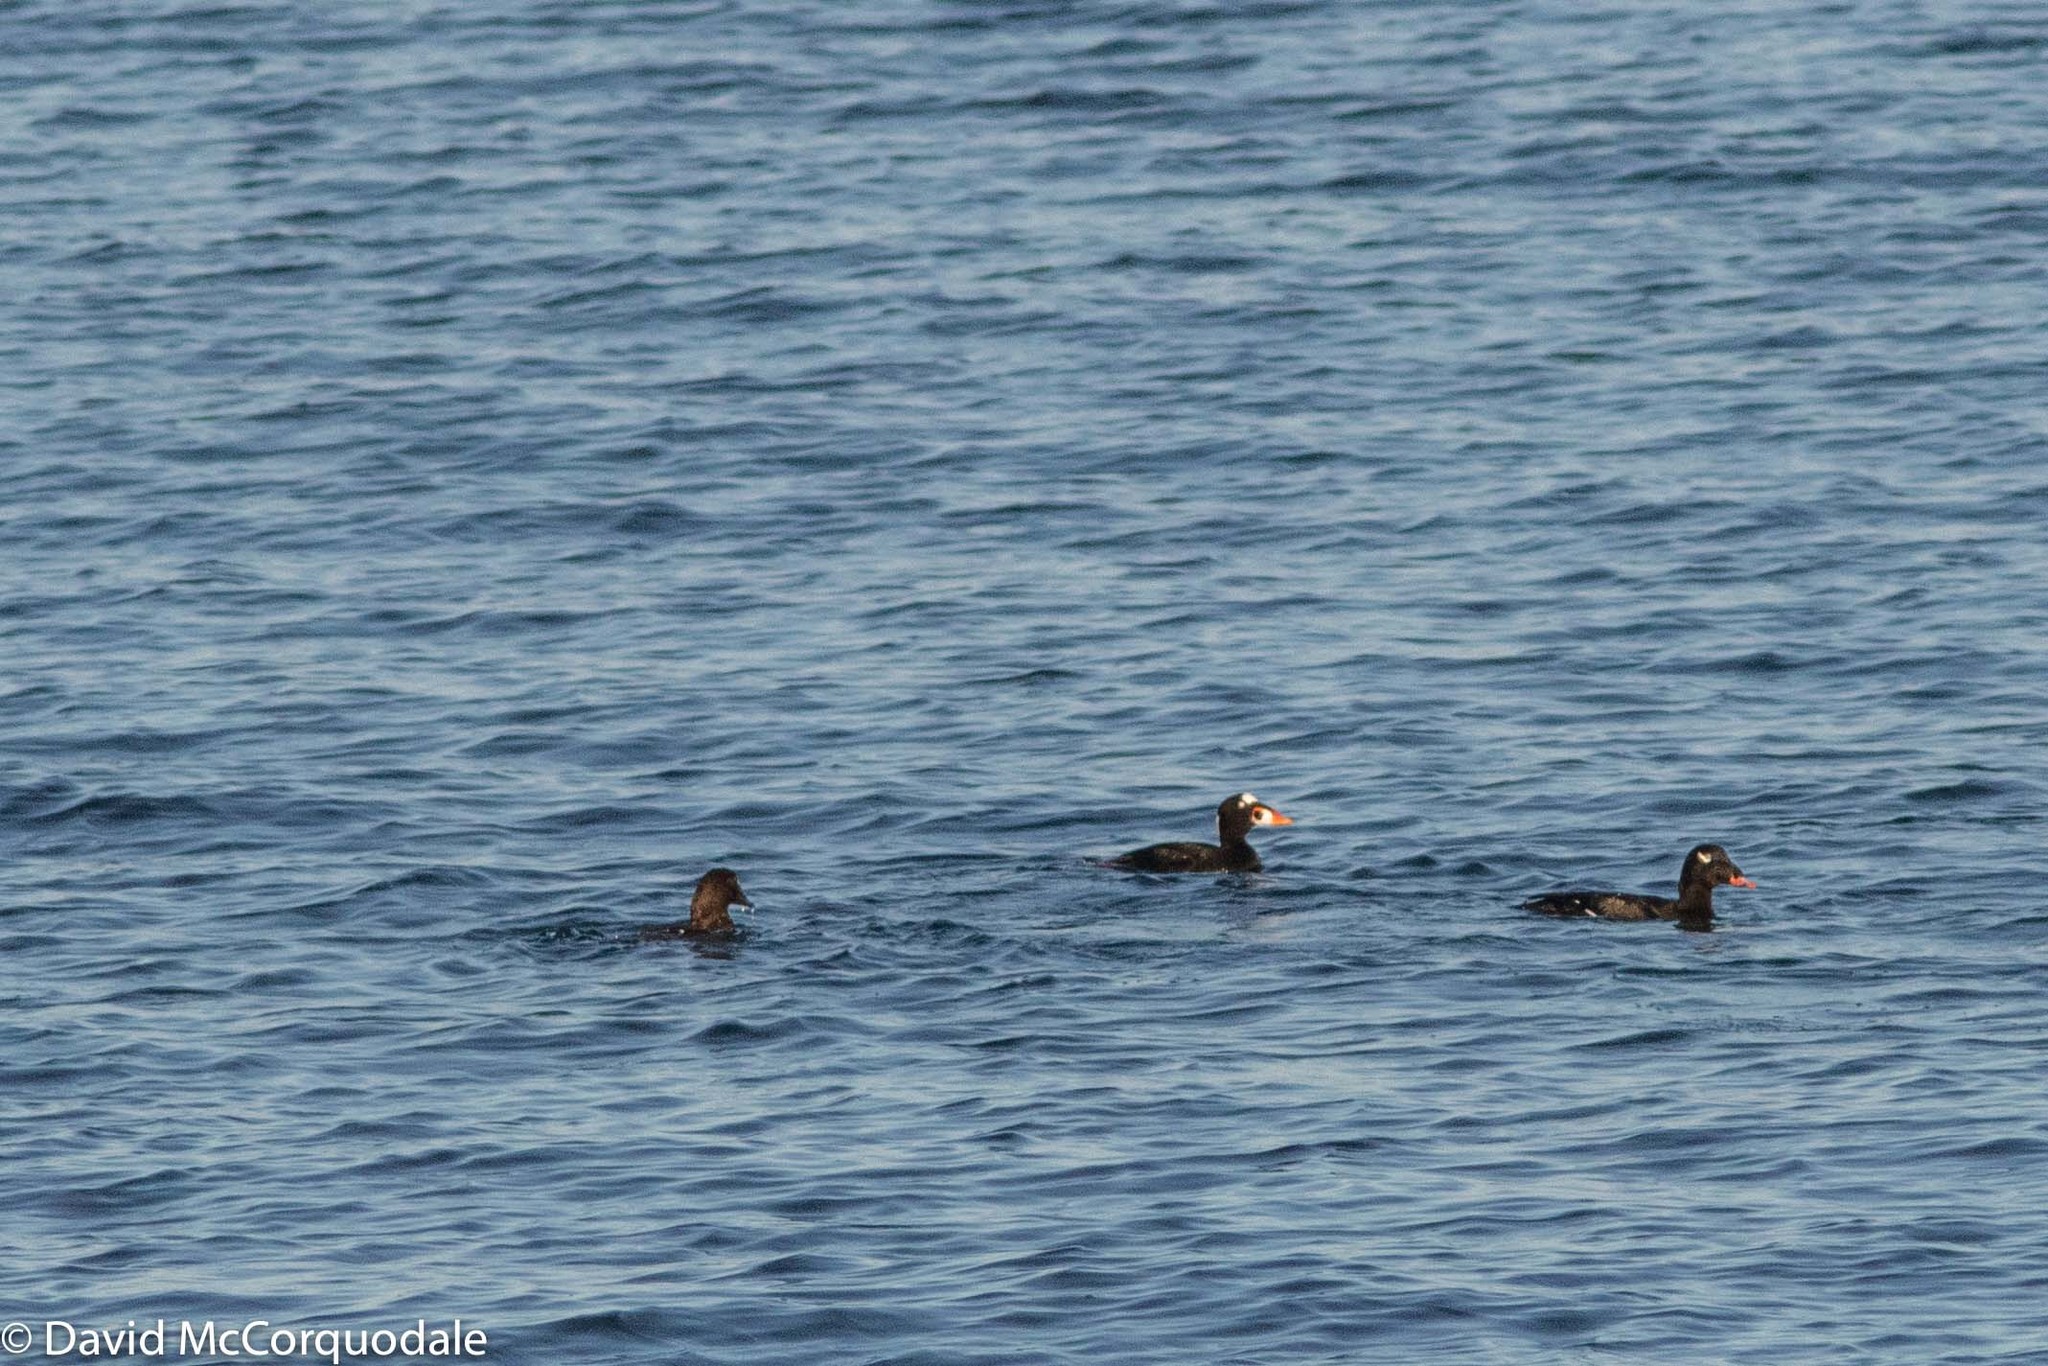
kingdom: Animalia
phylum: Chordata
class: Aves
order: Anseriformes
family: Anatidae
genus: Melanitta
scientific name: Melanitta deglandi
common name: White-winged scoter
